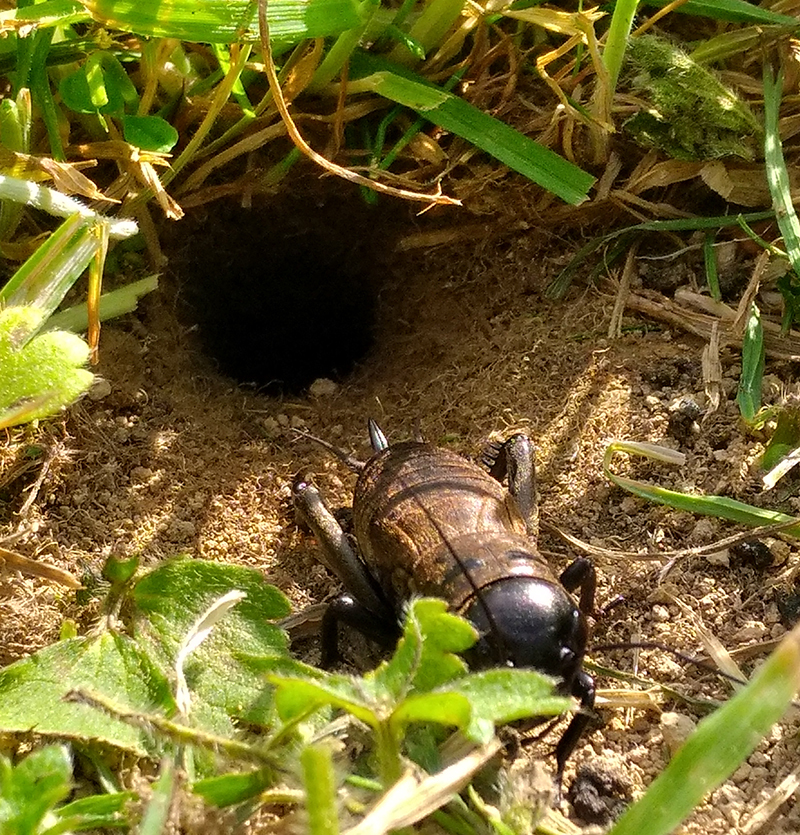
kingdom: Animalia
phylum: Arthropoda
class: Insecta
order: Orthoptera
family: Gryllidae
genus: Gryllus
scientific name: Gryllus campestris
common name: Field cricket
